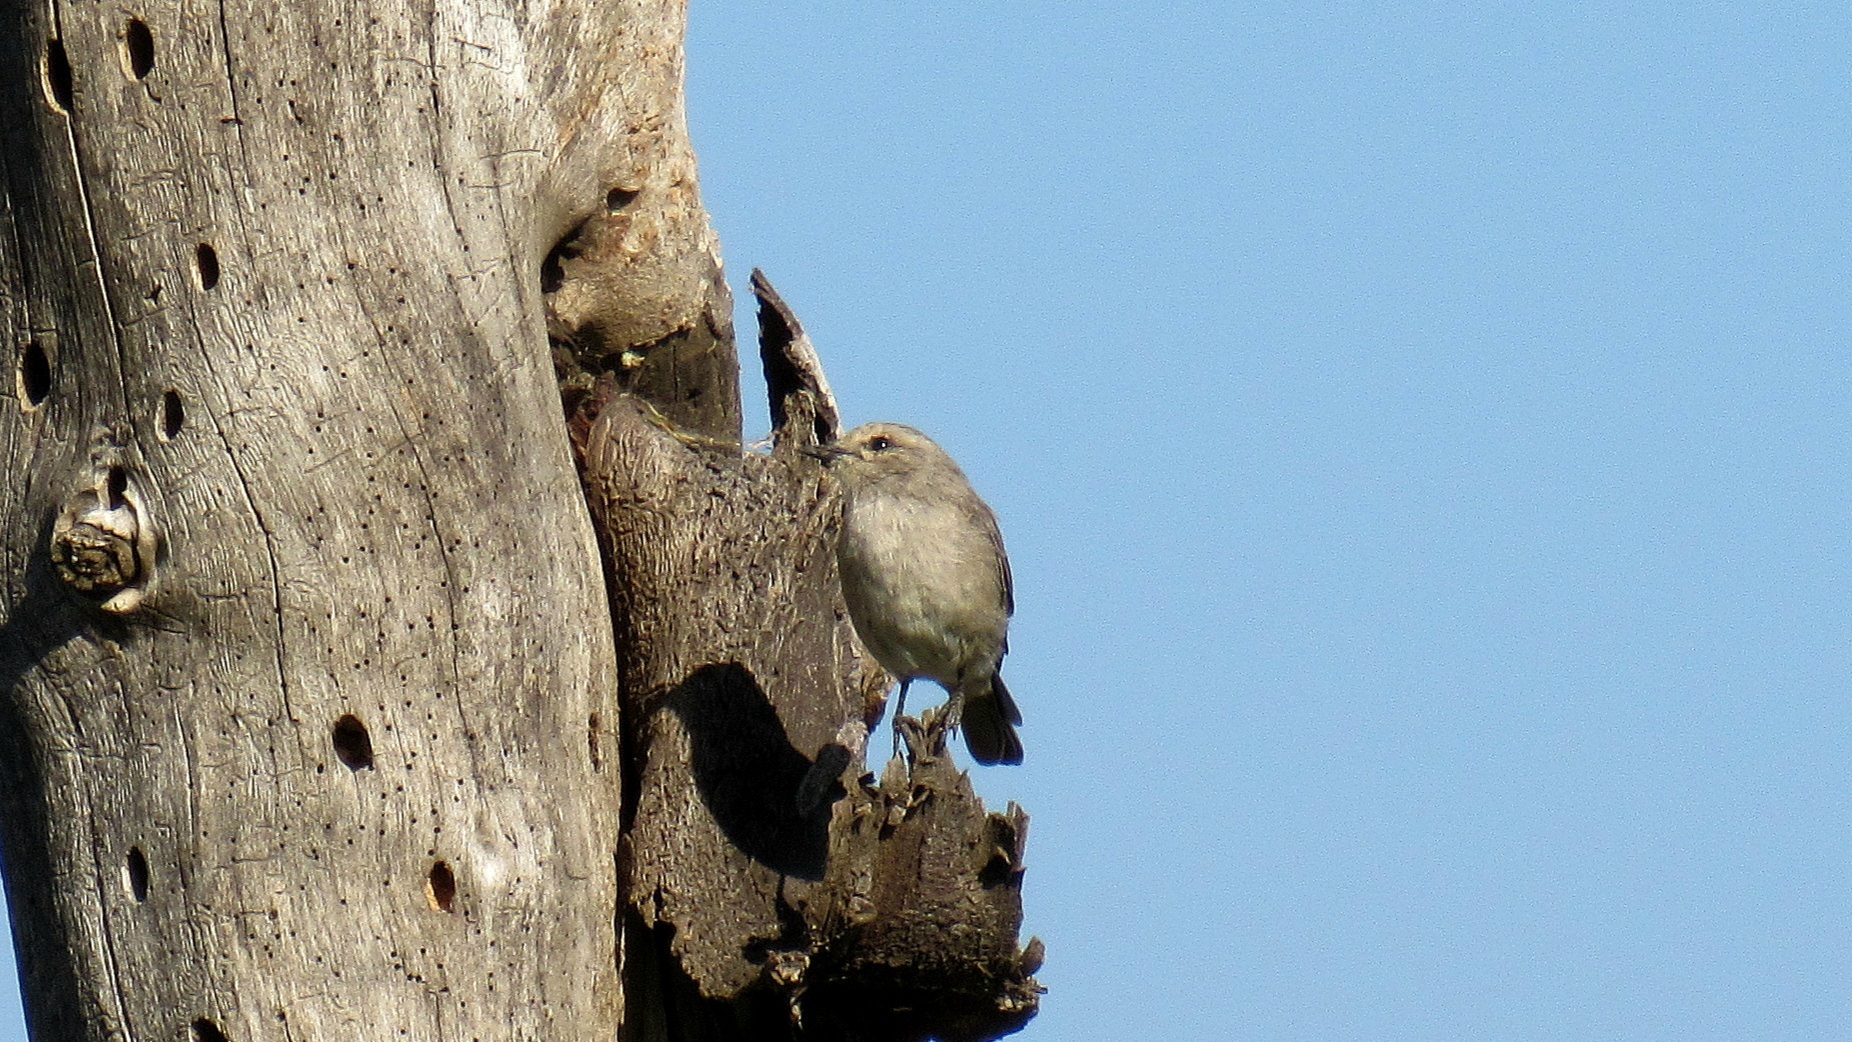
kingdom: Animalia
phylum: Chordata
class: Aves
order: Passeriformes
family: Muscicapidae
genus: Bradornis
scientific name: Bradornis microrhynchus
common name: African grey flycatcher
